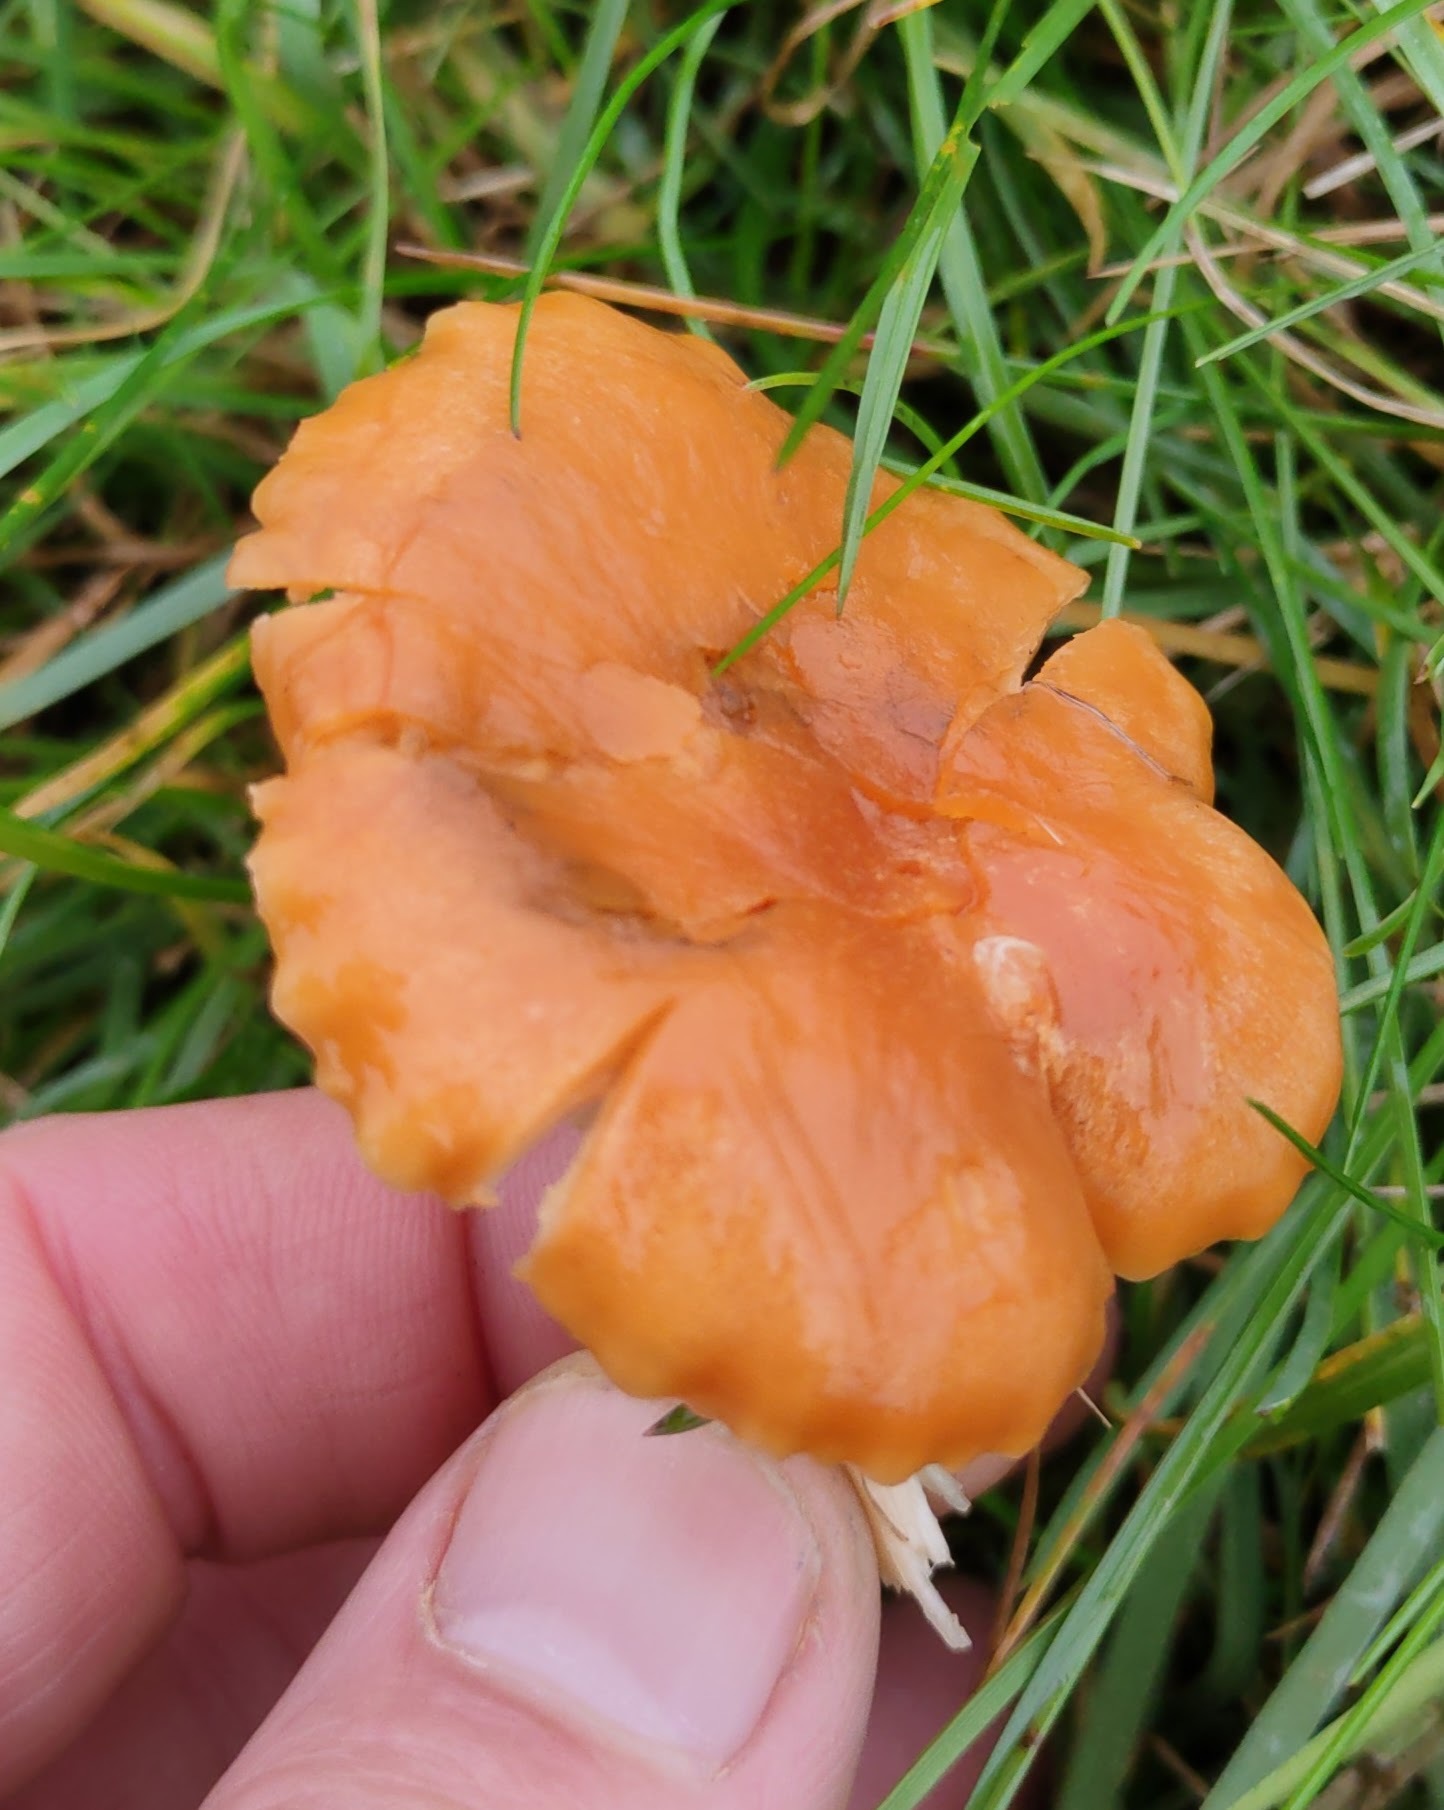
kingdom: Fungi
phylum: Basidiomycota
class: Agaricomycetes
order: Agaricales
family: Hygrophoraceae
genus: Cuphophyllus
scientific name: Cuphophyllus pratensis
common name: Meadow waxcap
